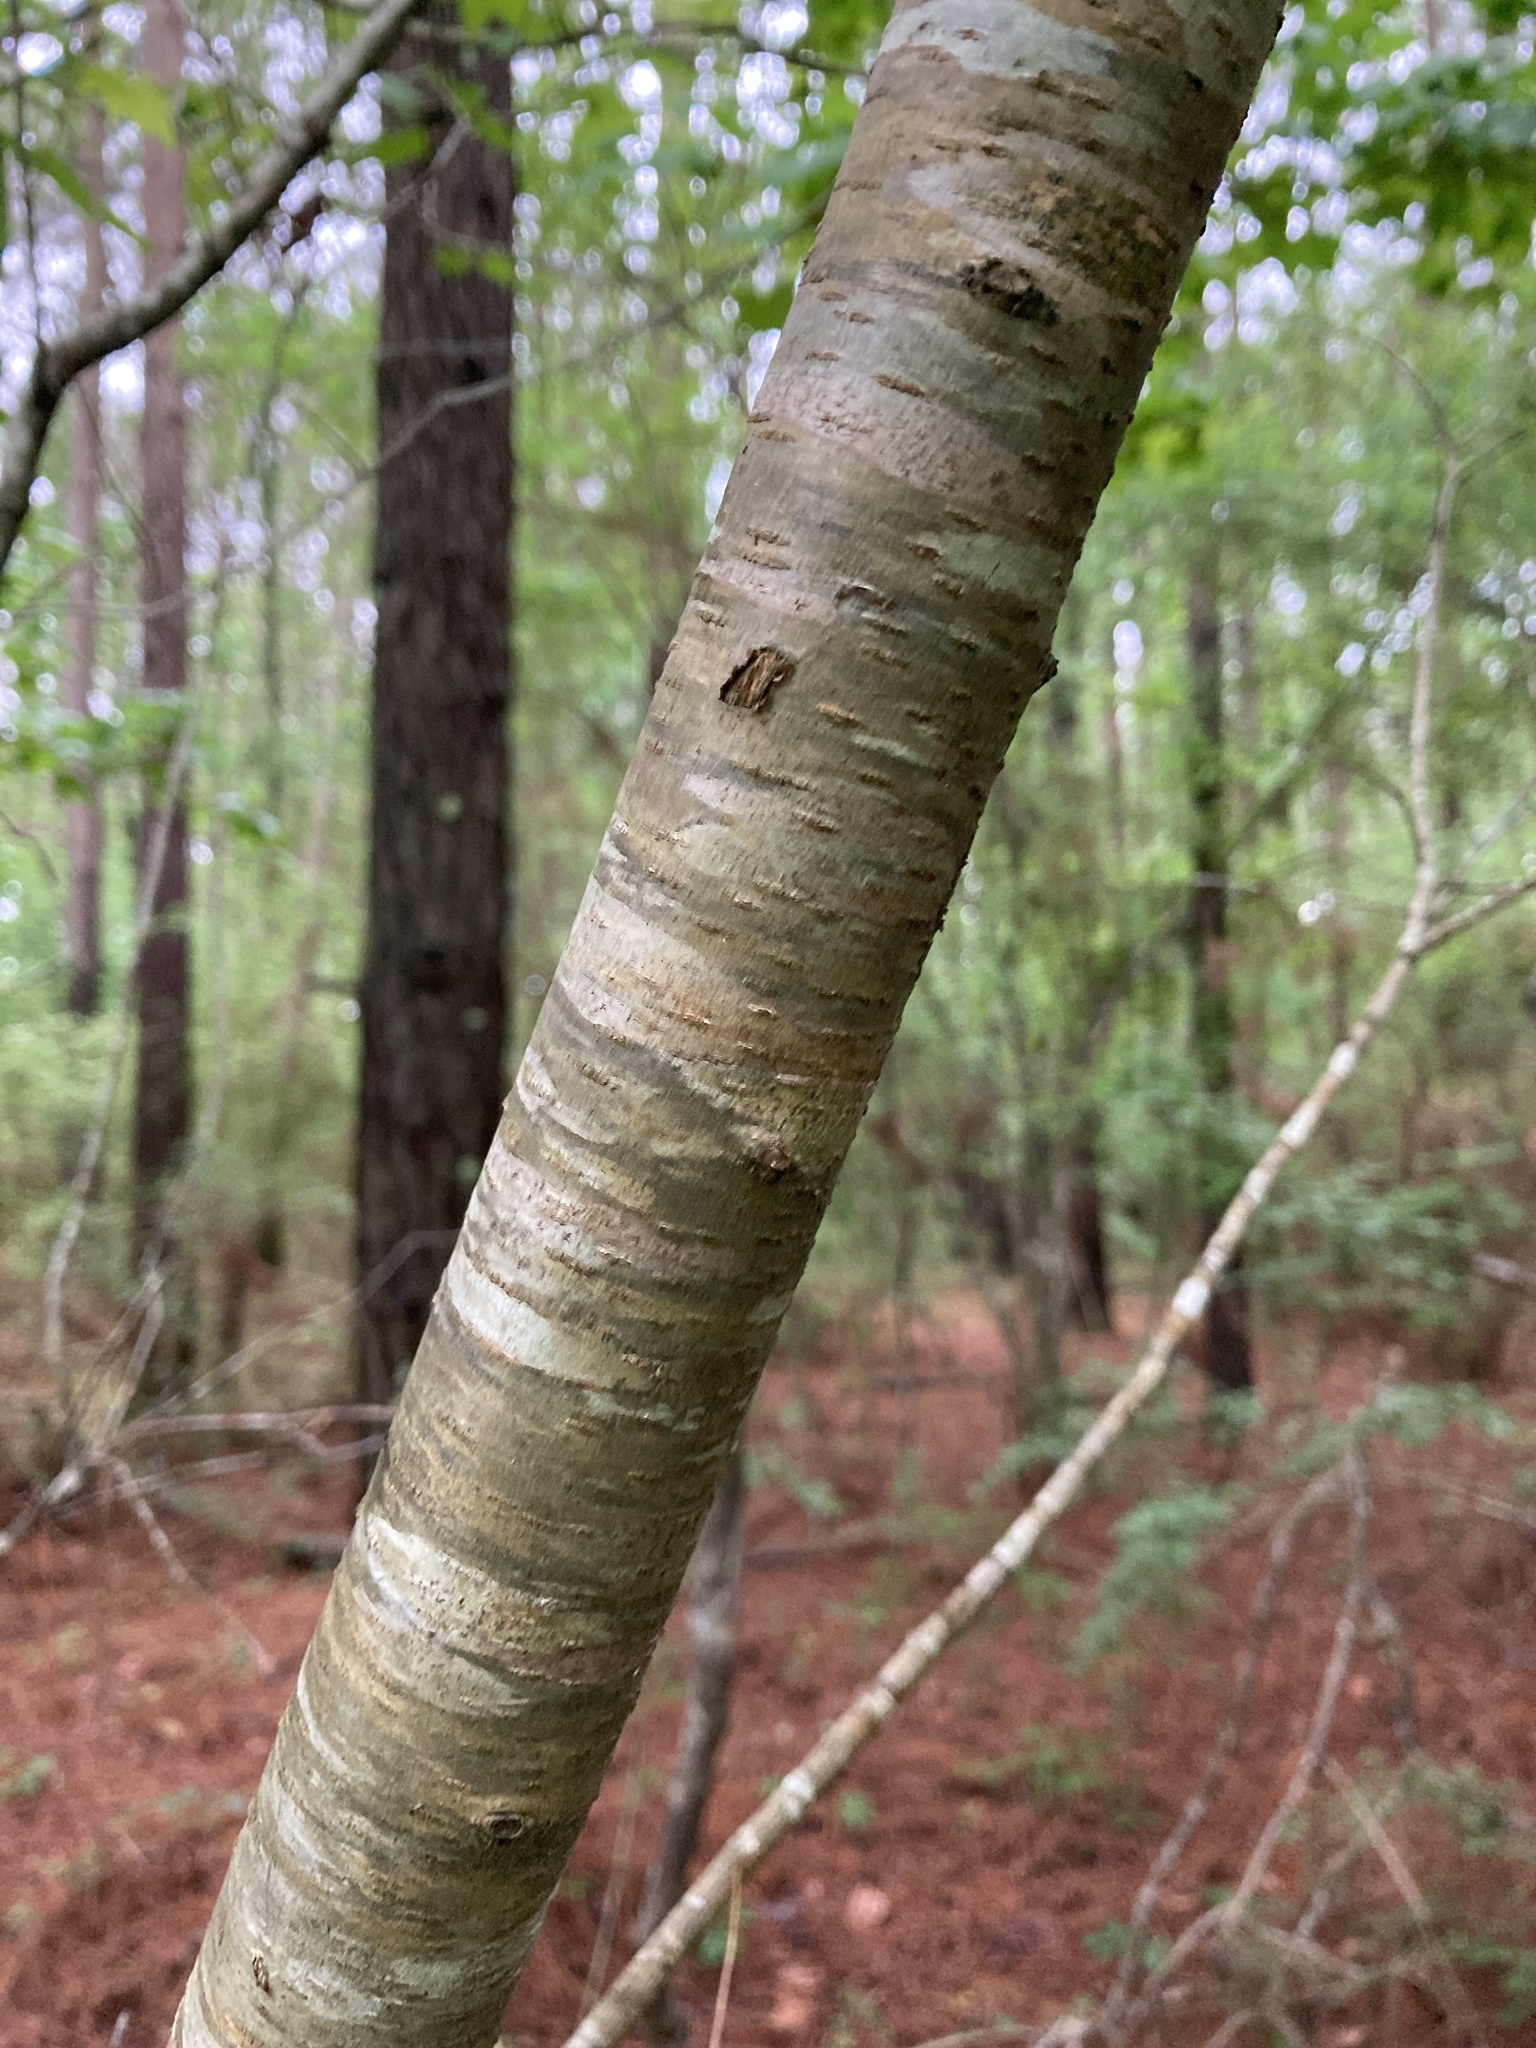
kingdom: Plantae
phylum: Tracheophyta
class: Magnoliopsida
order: Rosales
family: Rosaceae
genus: Prunus
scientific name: Prunus serotina
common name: Black cherry
